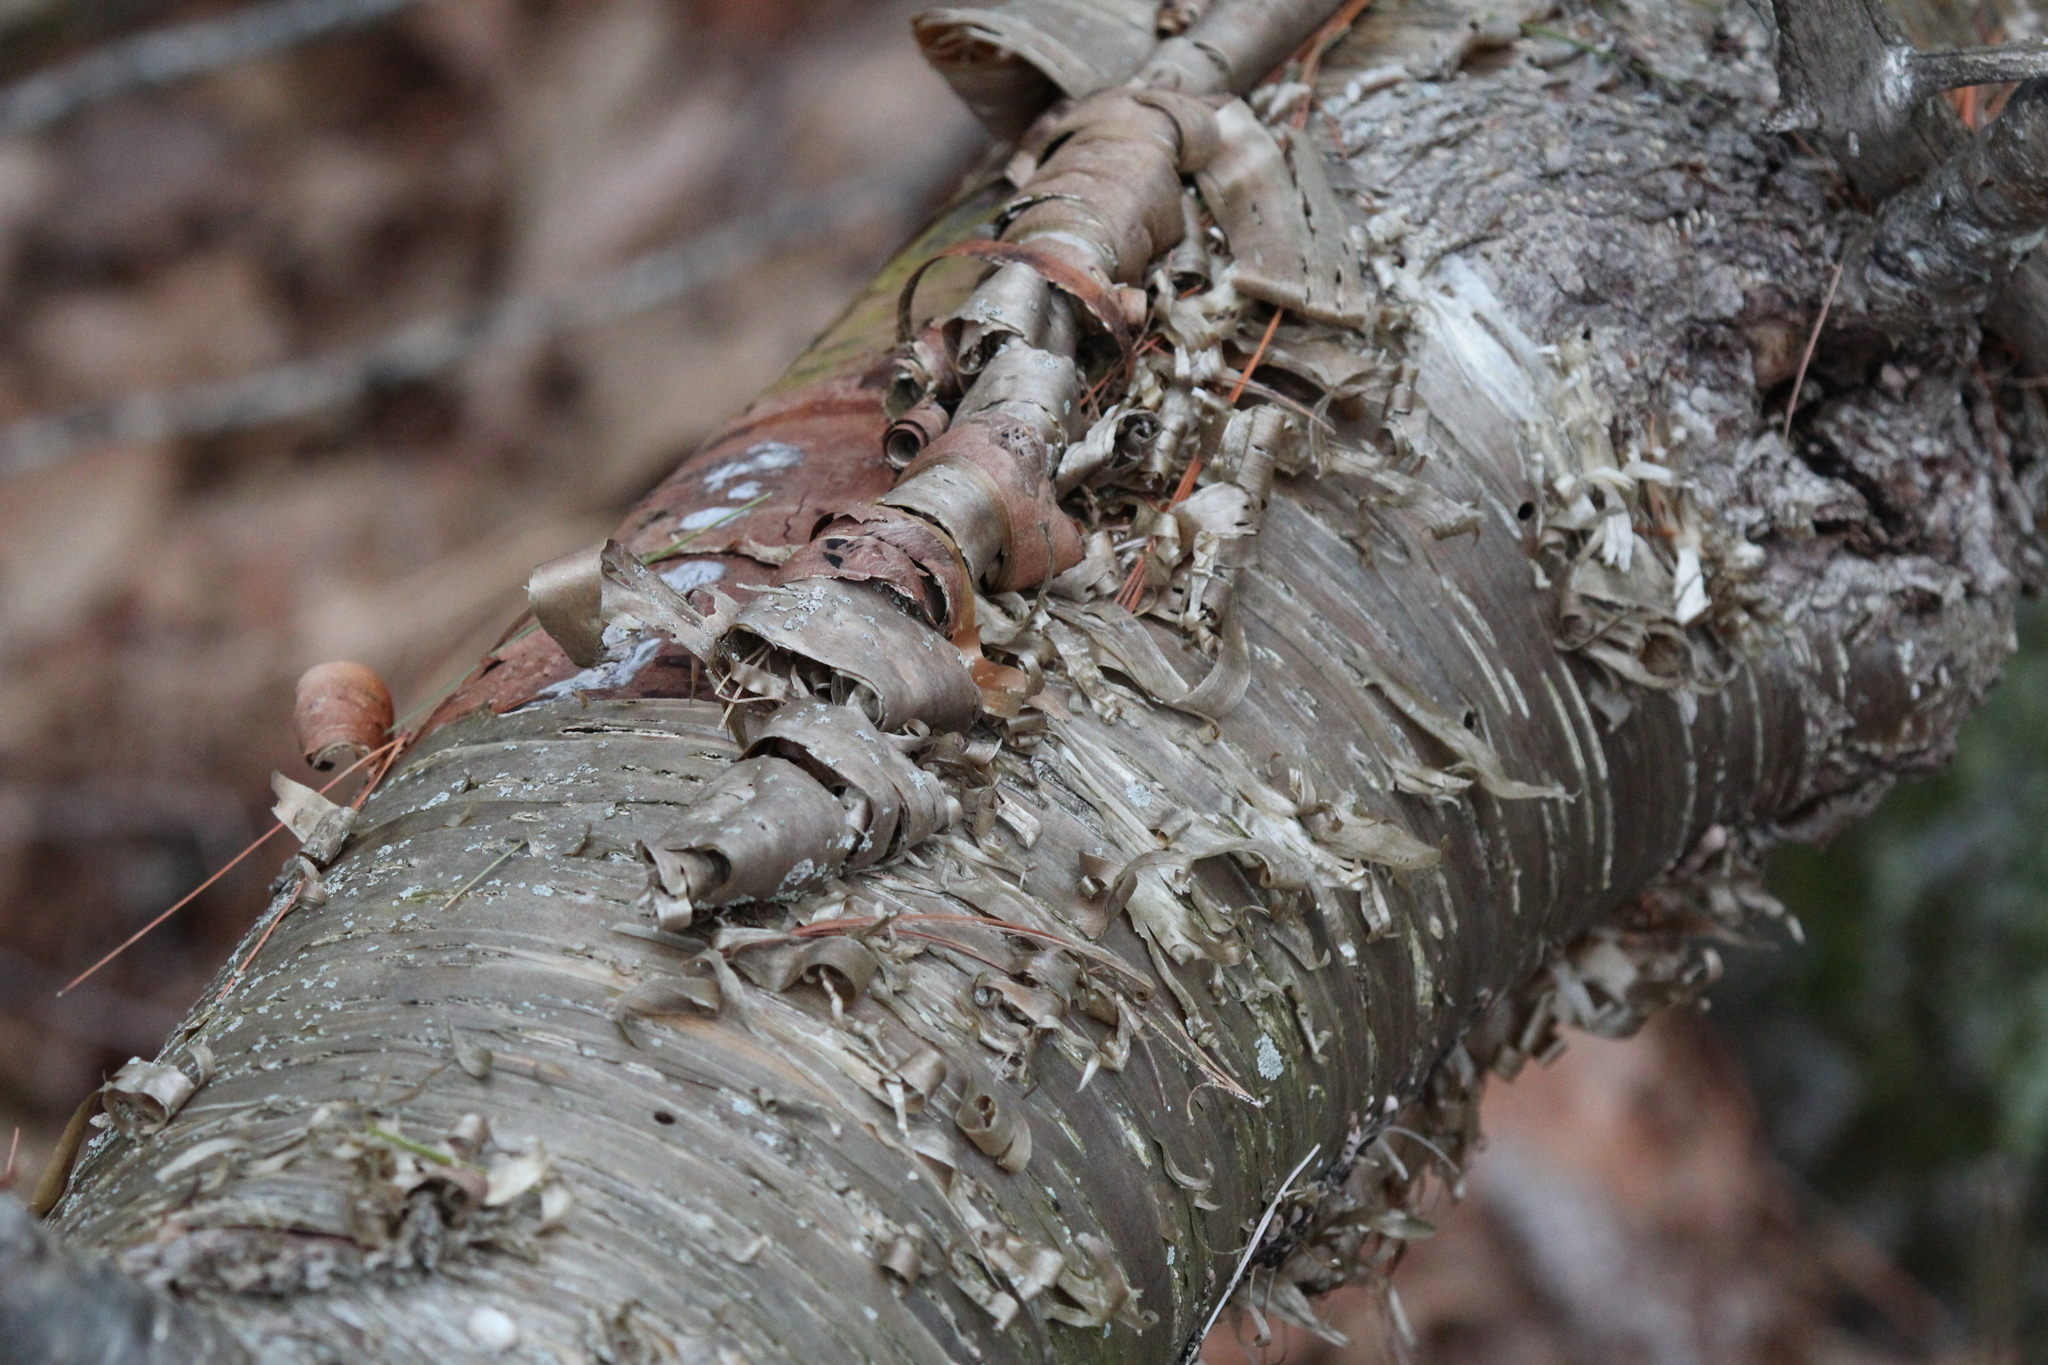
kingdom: Plantae
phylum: Tracheophyta
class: Magnoliopsida
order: Fagales
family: Betulaceae
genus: Betula
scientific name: Betula alleghaniensis
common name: Yellow birch
